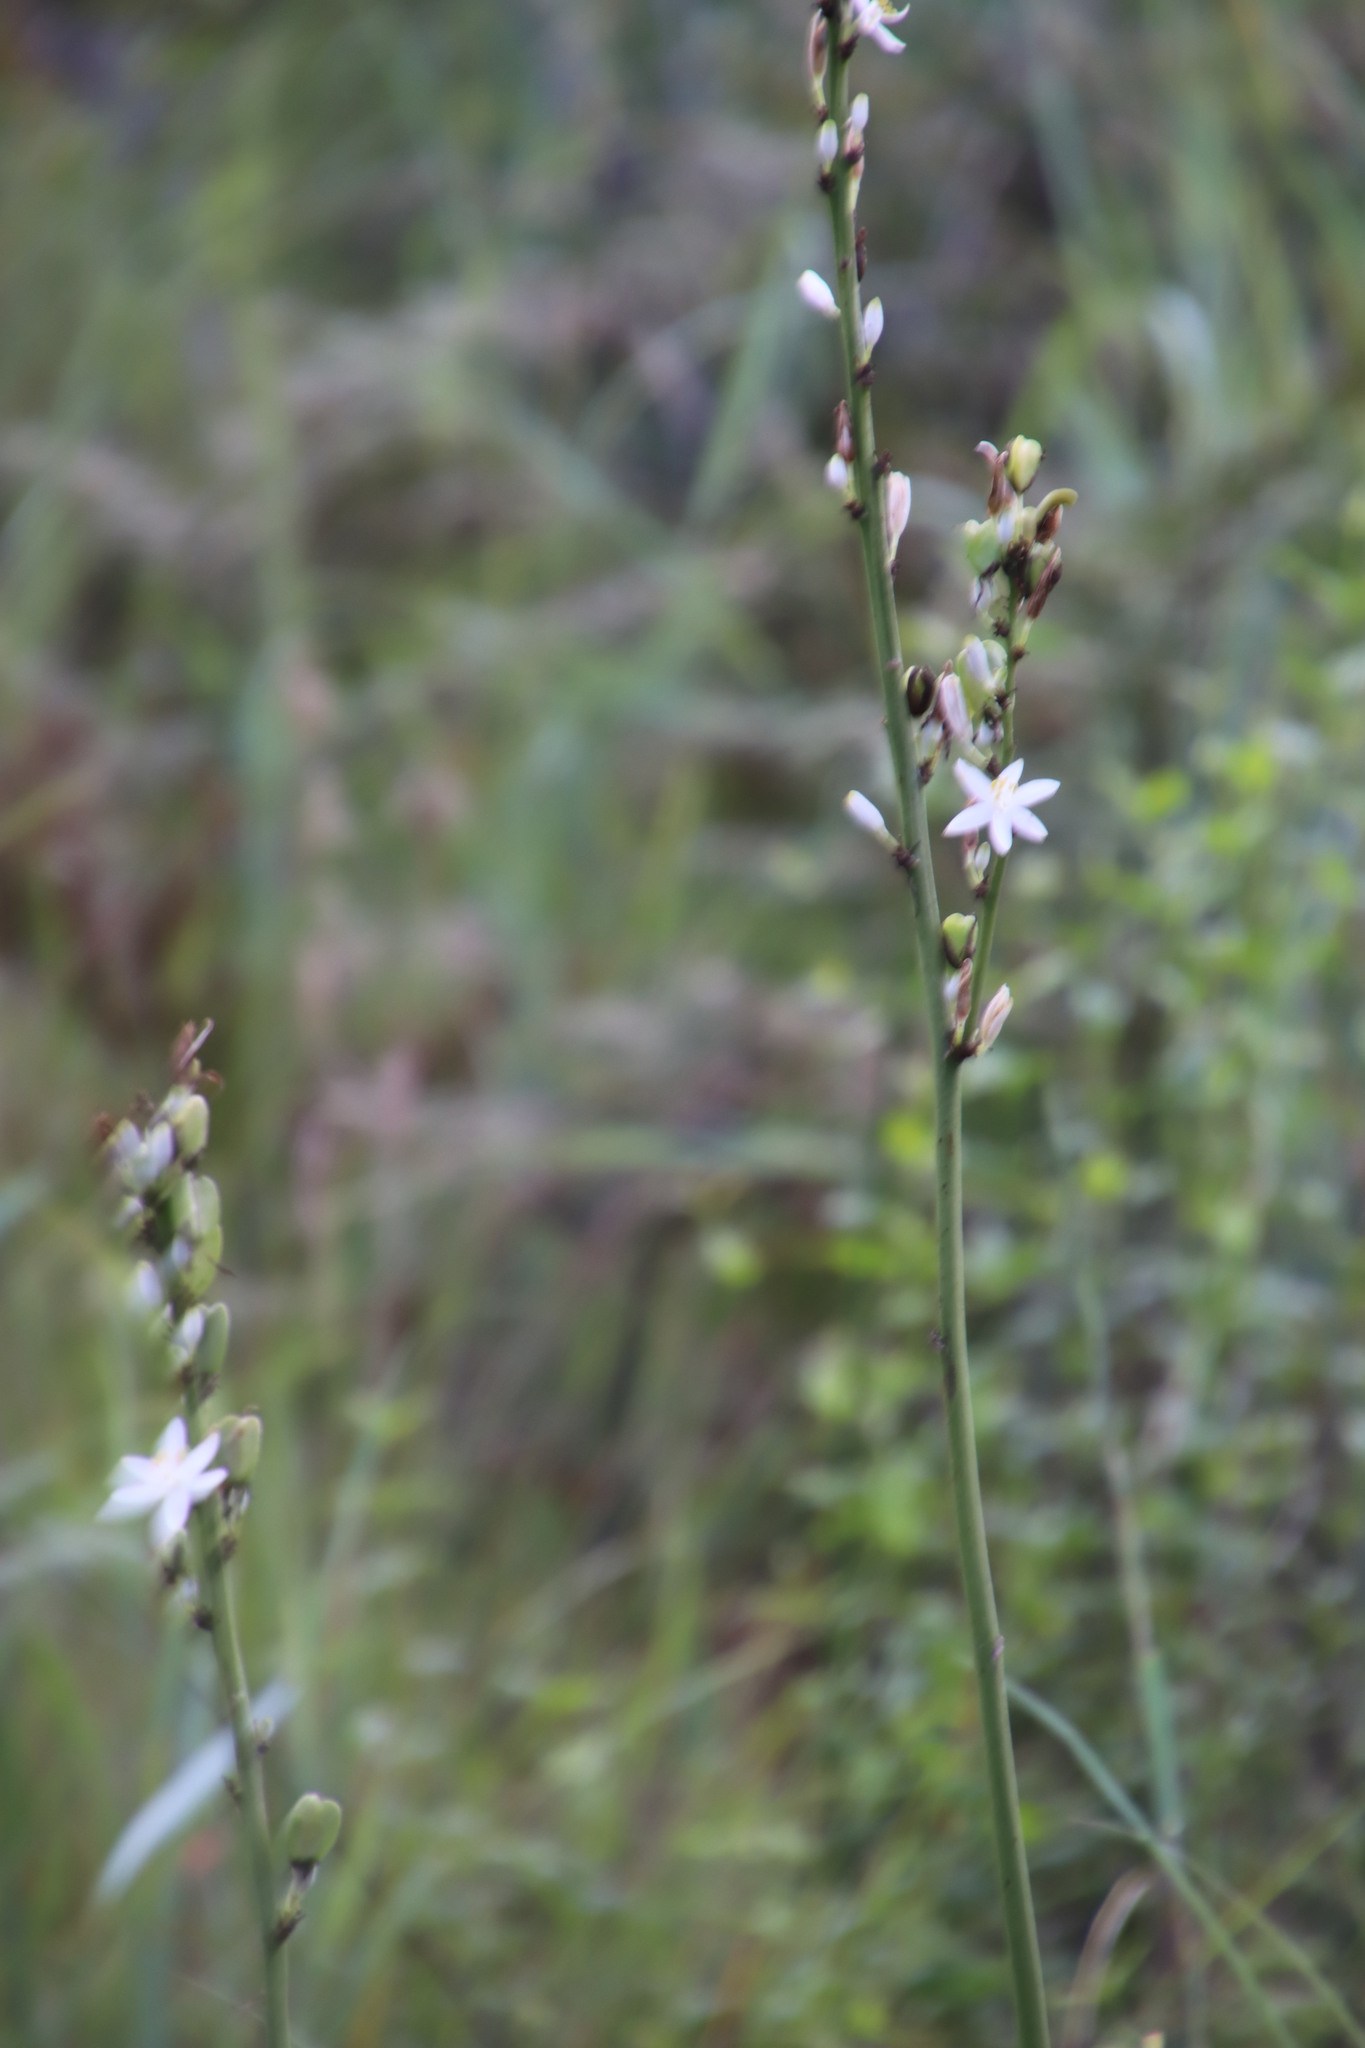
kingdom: Plantae
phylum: Tracheophyta
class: Liliopsida
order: Asparagales
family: Asparagaceae
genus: Chlorophytum
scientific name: Chlorophytum bowkeri
